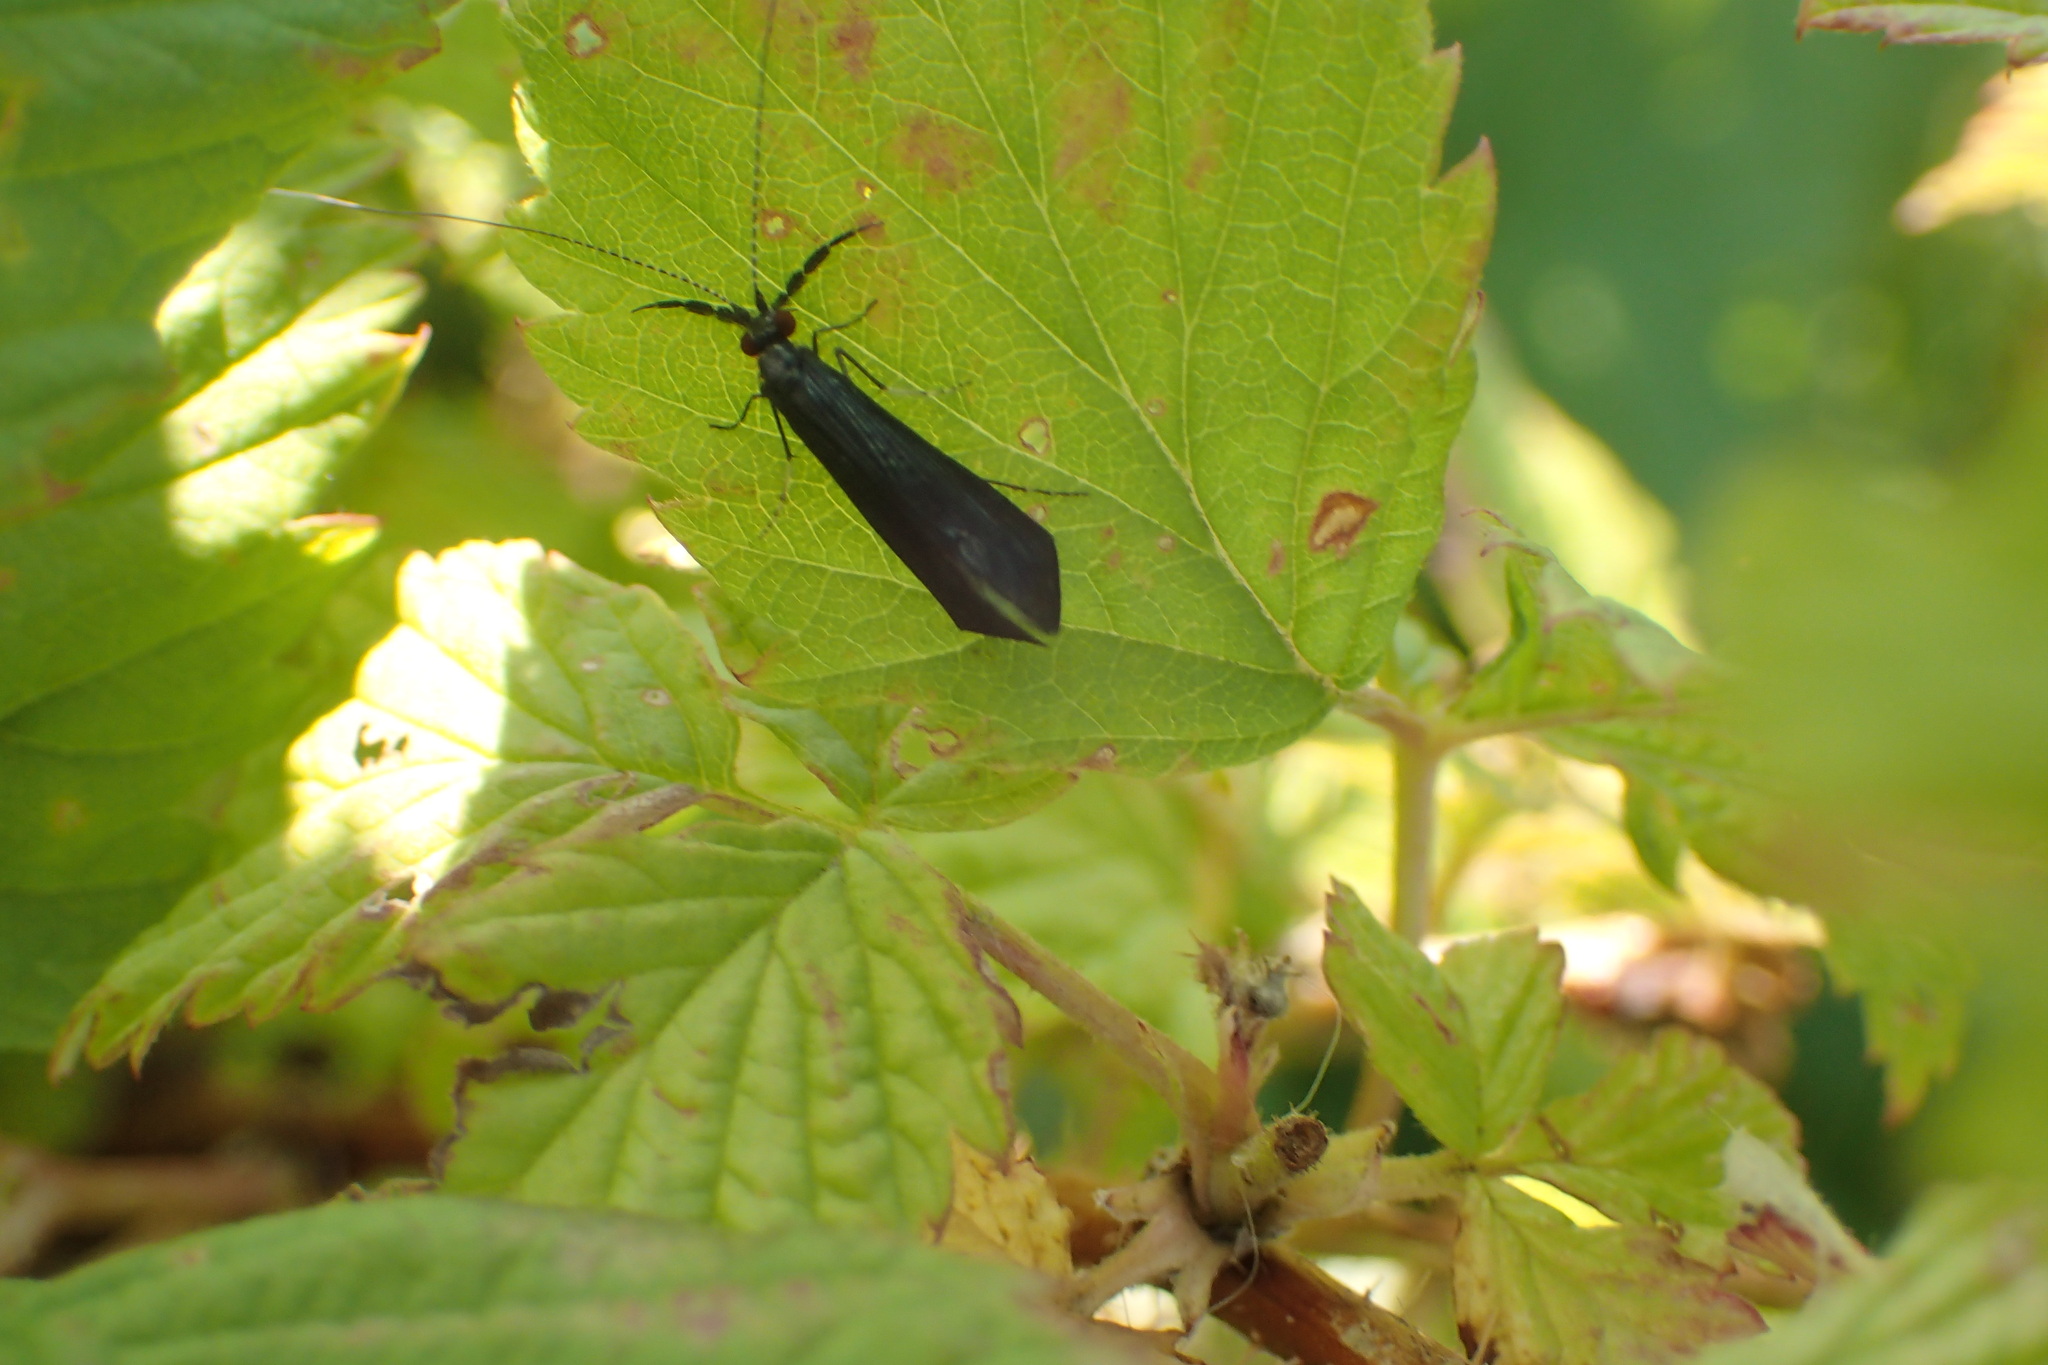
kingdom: Animalia
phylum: Arthropoda
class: Insecta
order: Trichoptera
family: Leptoceridae
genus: Mystacides
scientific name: Mystacides sepulchralis
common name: Black dancer caddisfly
